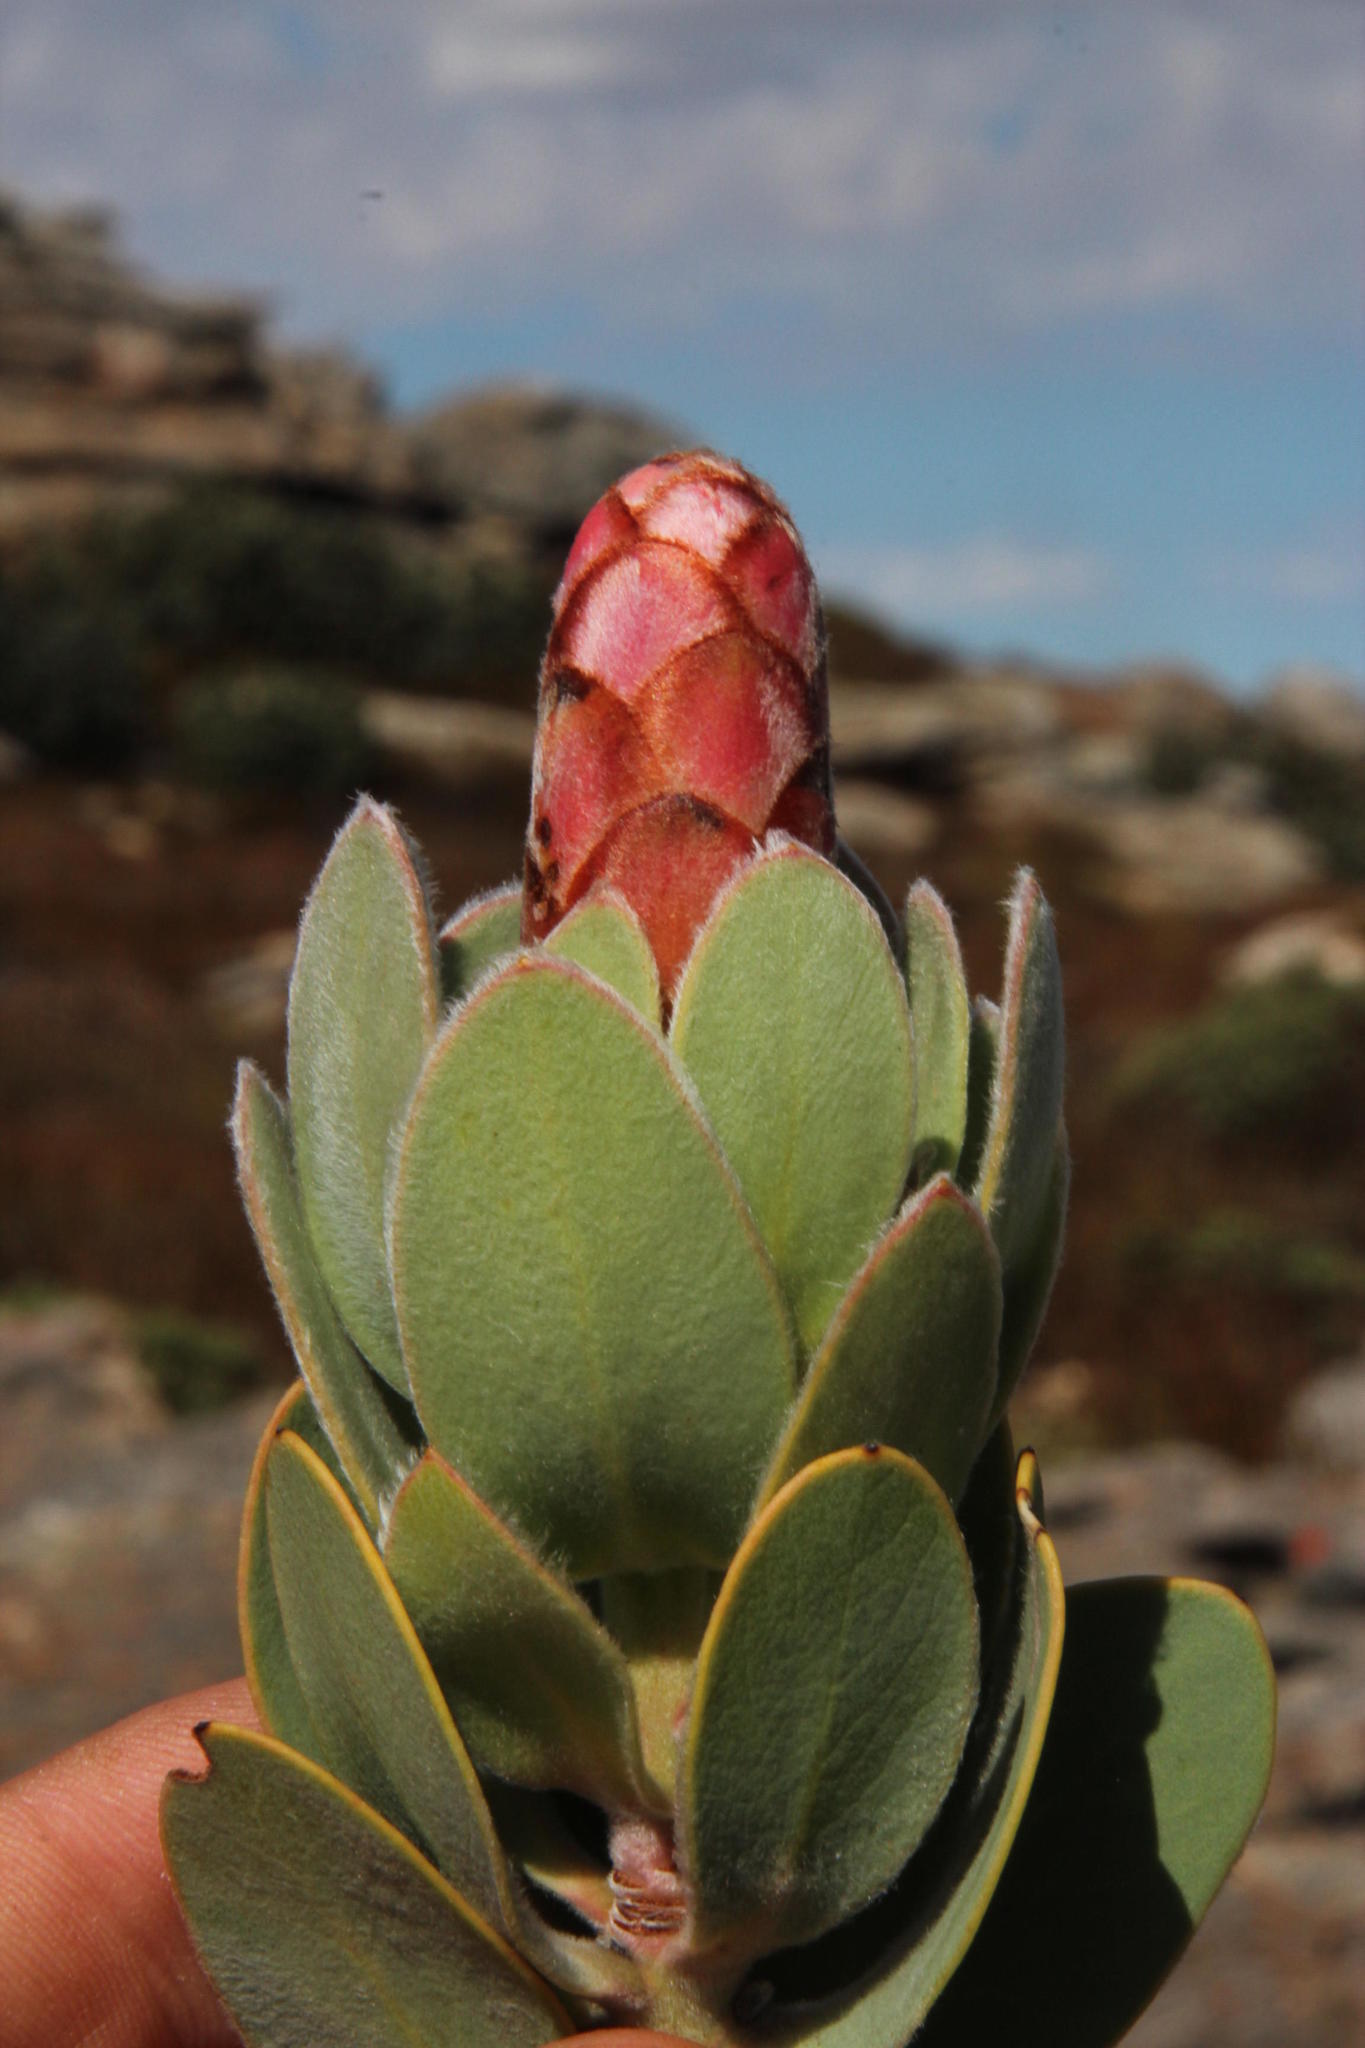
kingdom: Plantae
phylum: Tracheophyta
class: Magnoliopsida
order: Proteales
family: Proteaceae
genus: Protea
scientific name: Protea punctata
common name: Water sugarbush
